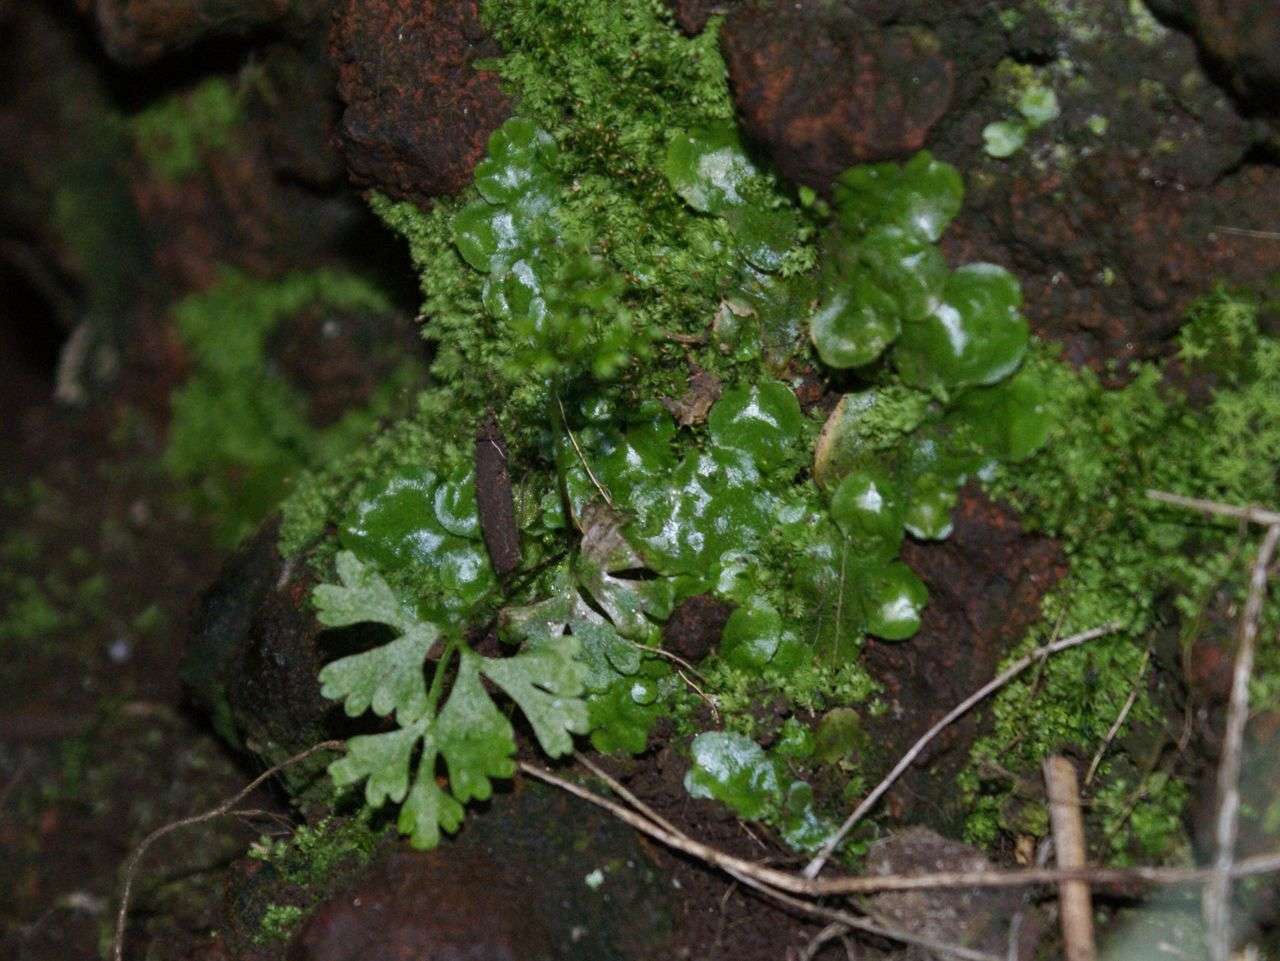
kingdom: Plantae
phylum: Tracheophyta
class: Polypodiopsida
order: Polypodiales
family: Pteridaceae
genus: Anogramma
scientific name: Anogramma leptophylla
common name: Jersey fern
